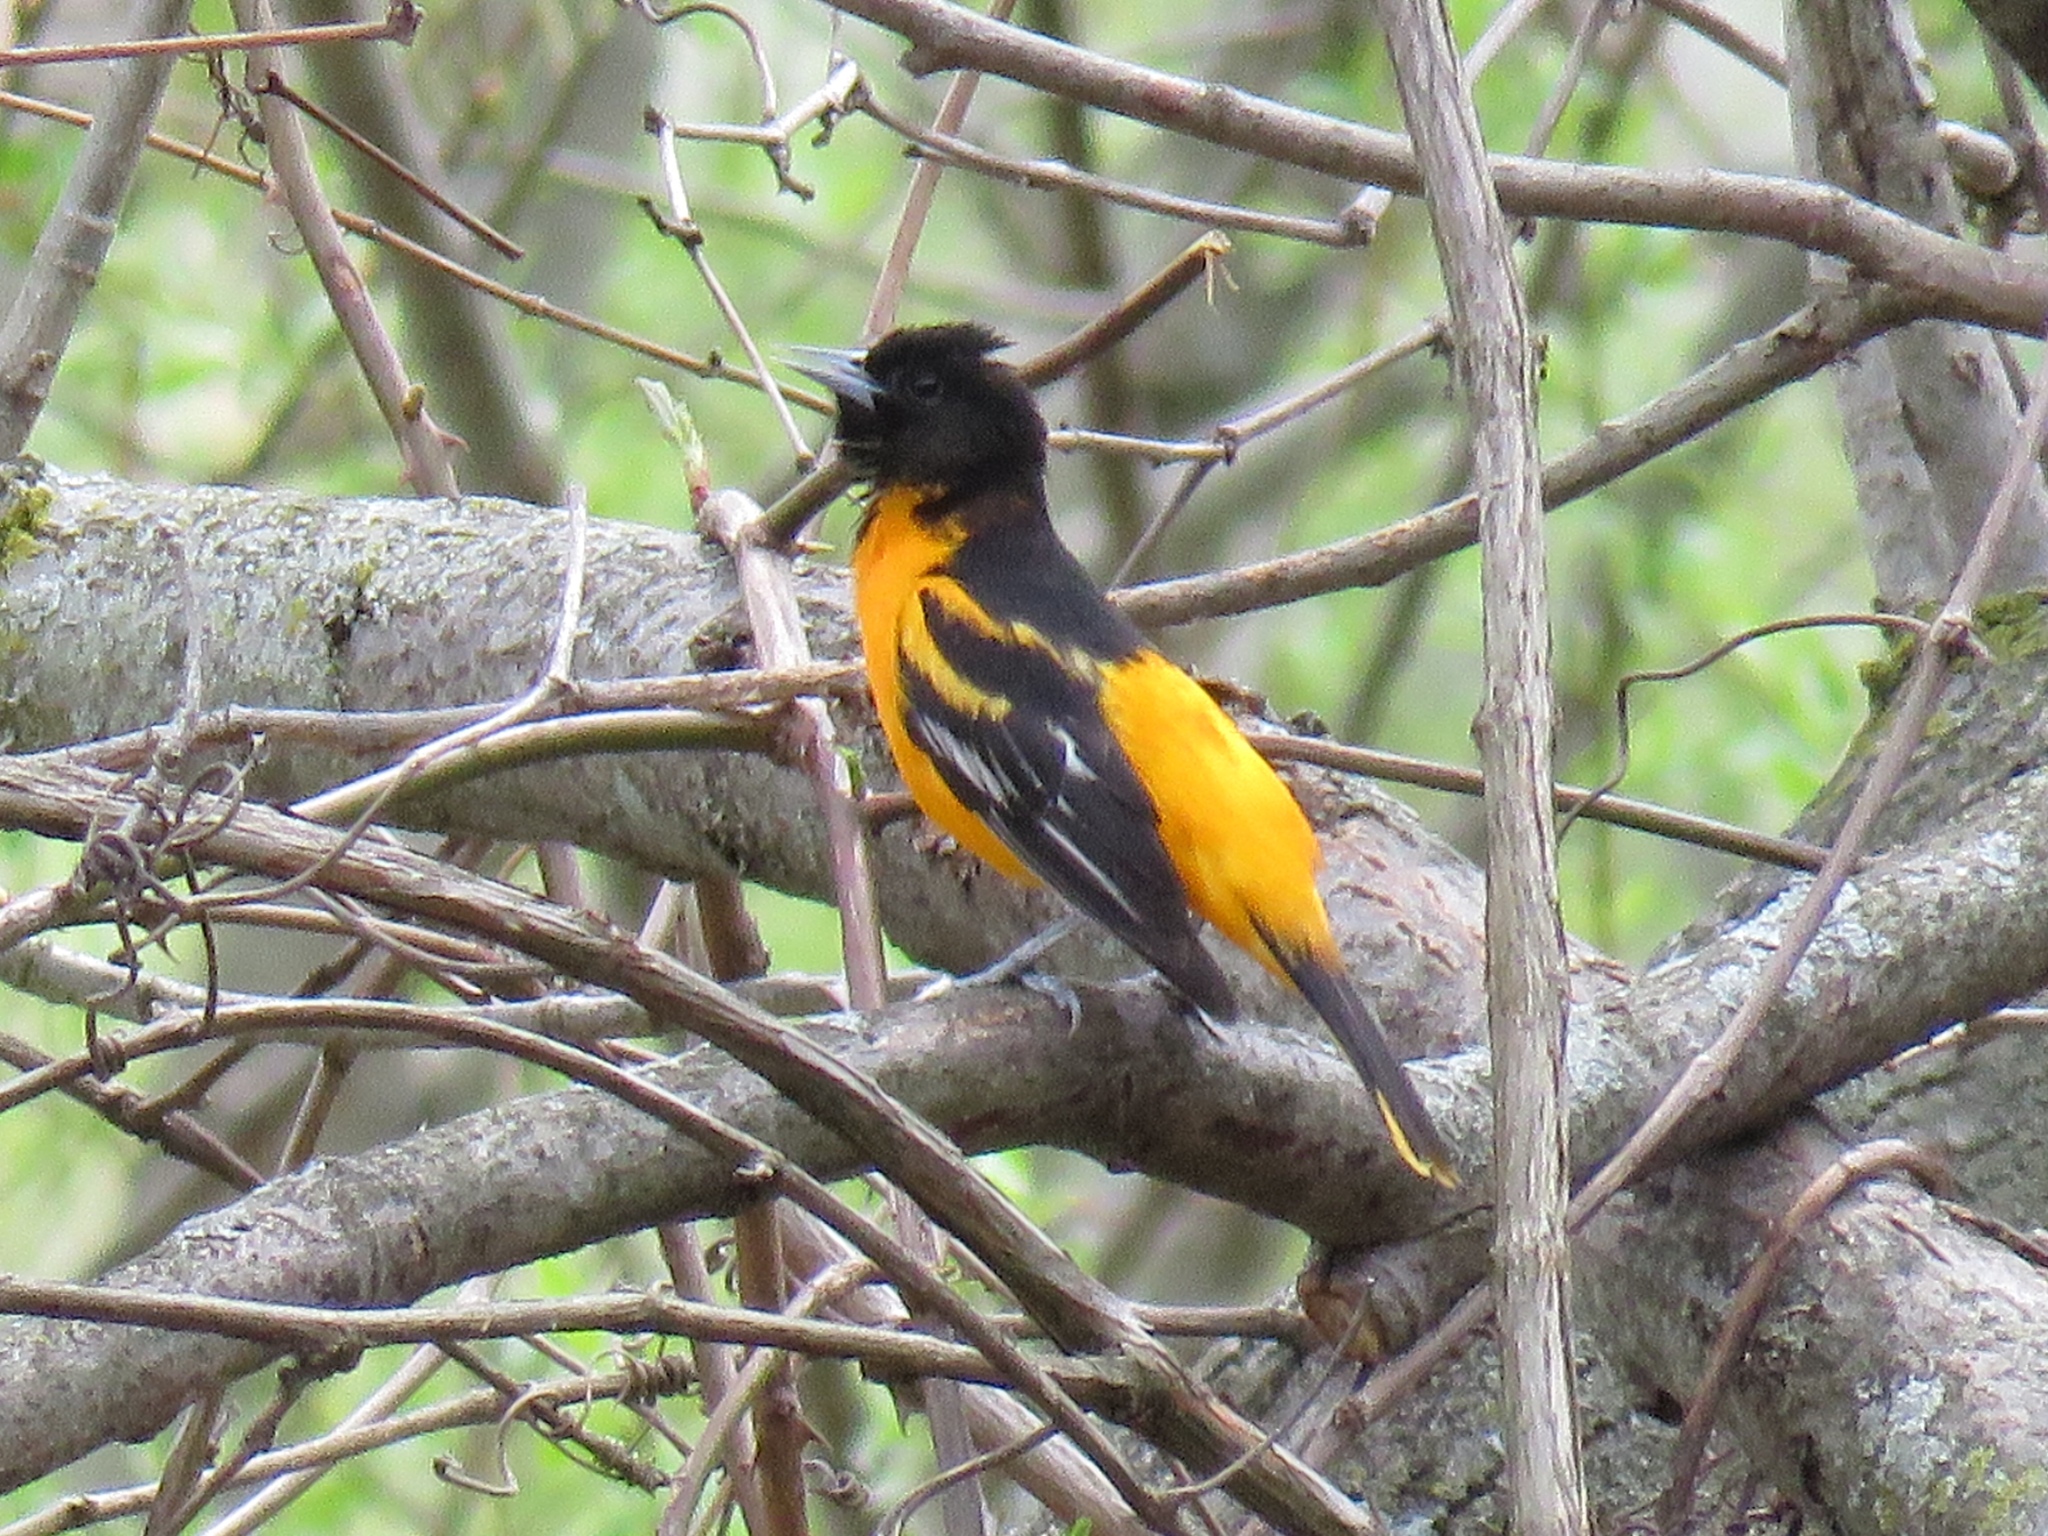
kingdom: Animalia
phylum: Chordata
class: Aves
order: Passeriformes
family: Icteridae
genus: Icterus
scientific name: Icterus galbula
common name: Baltimore oriole
